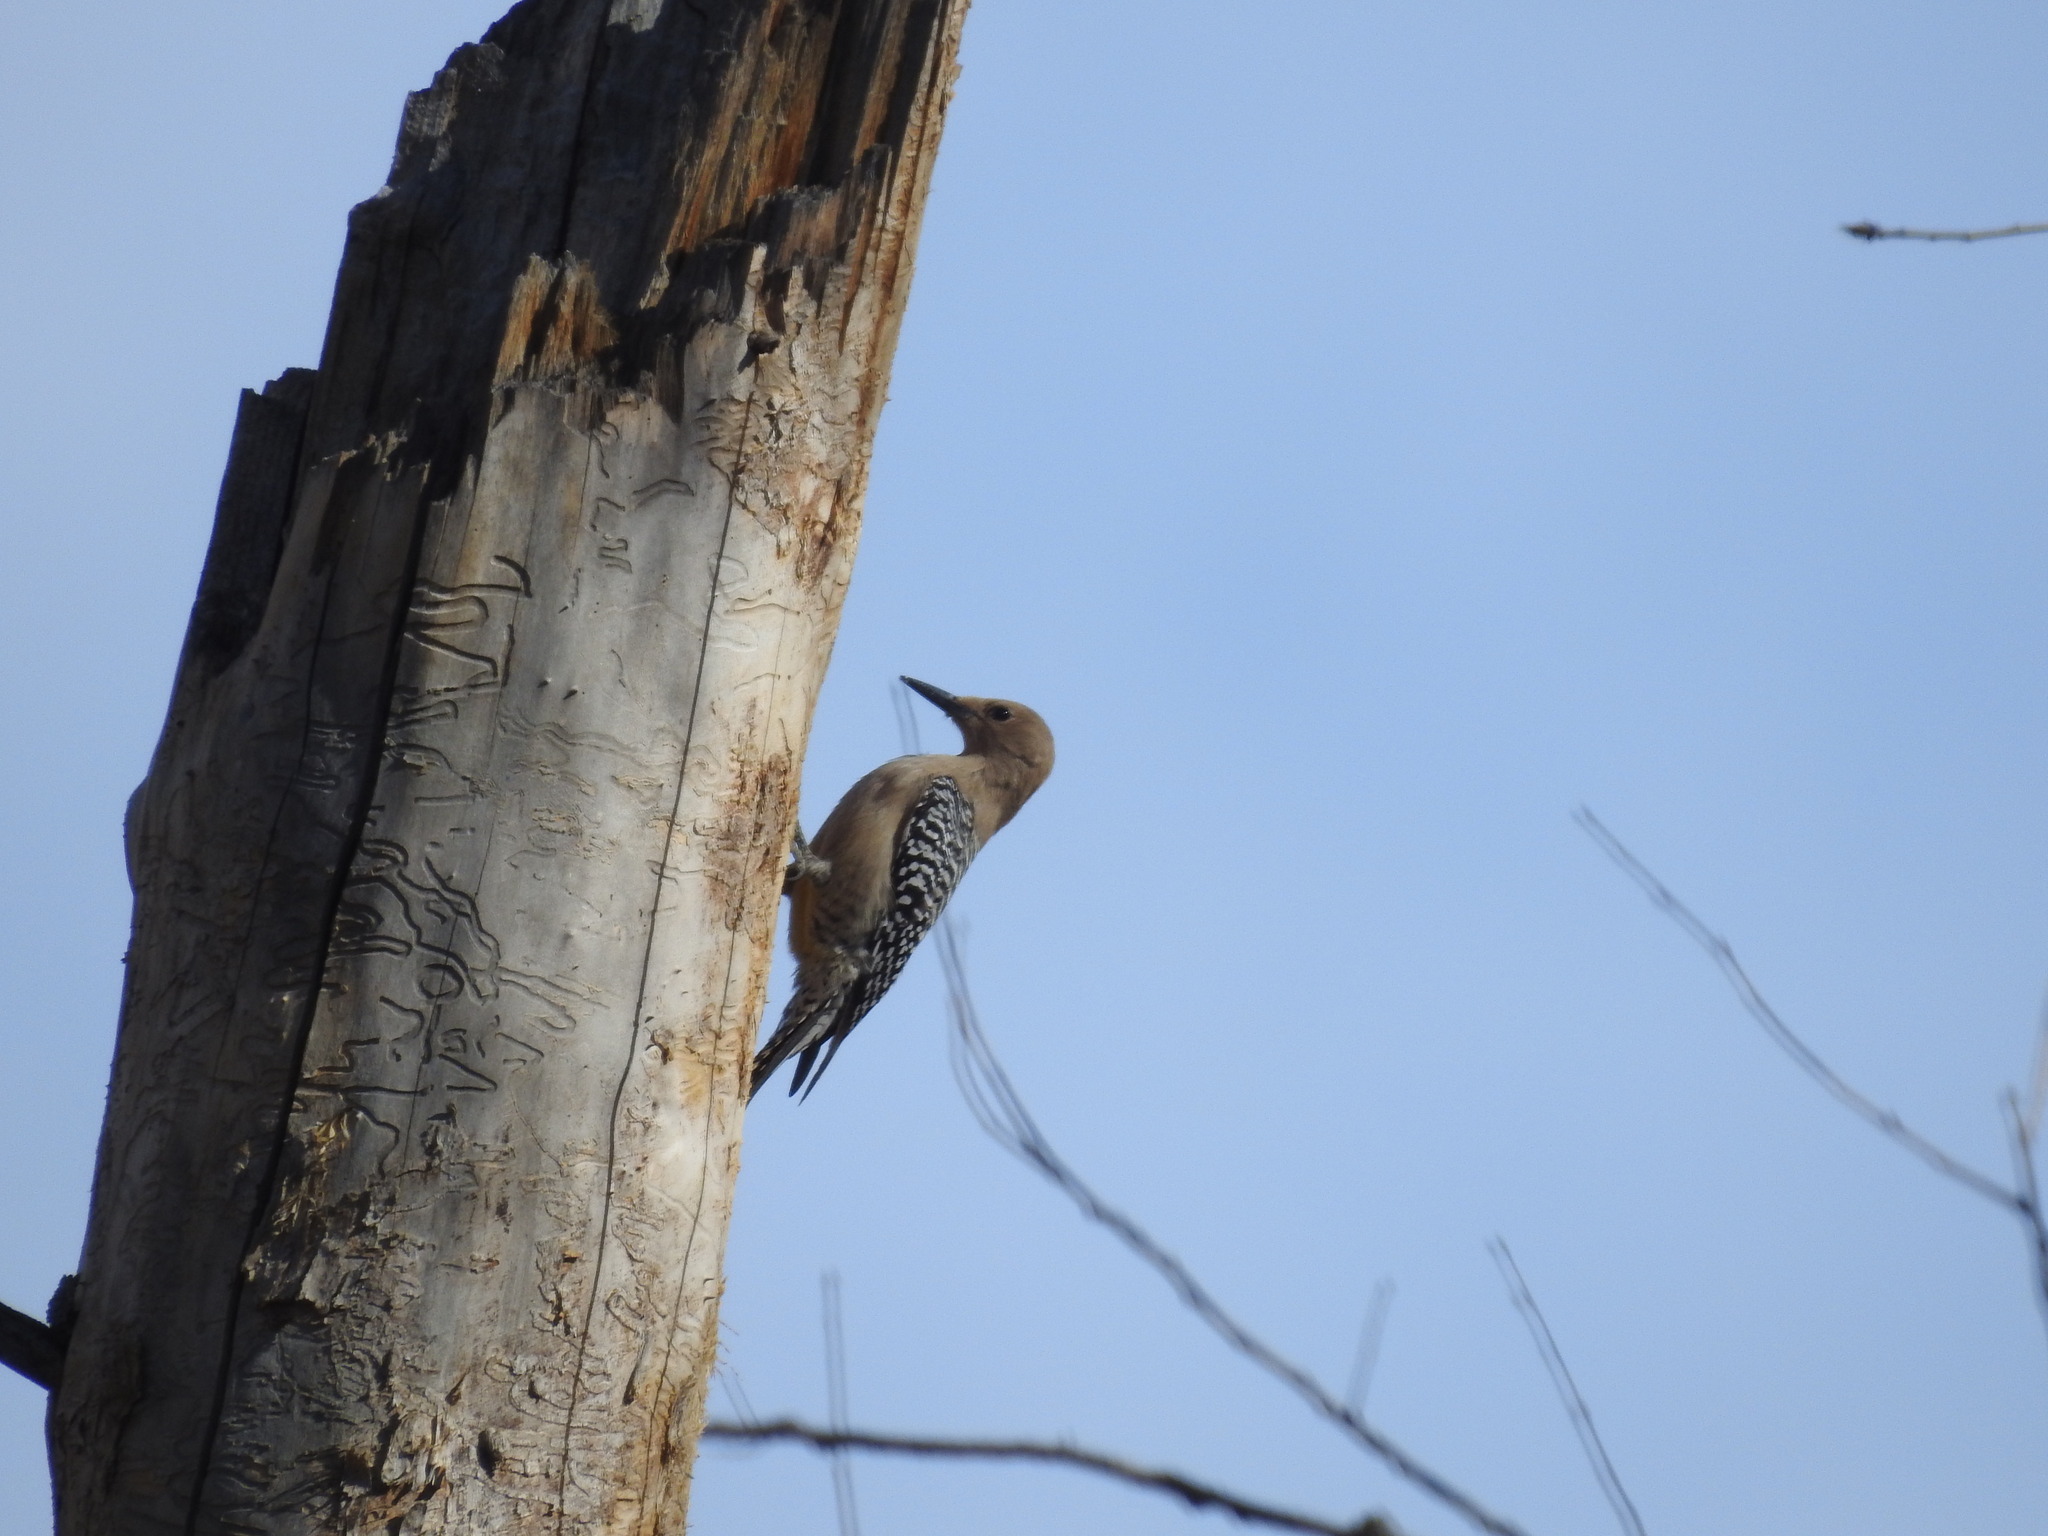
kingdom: Animalia
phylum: Chordata
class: Aves
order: Piciformes
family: Picidae
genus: Melanerpes
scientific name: Melanerpes uropygialis
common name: Gila woodpecker
